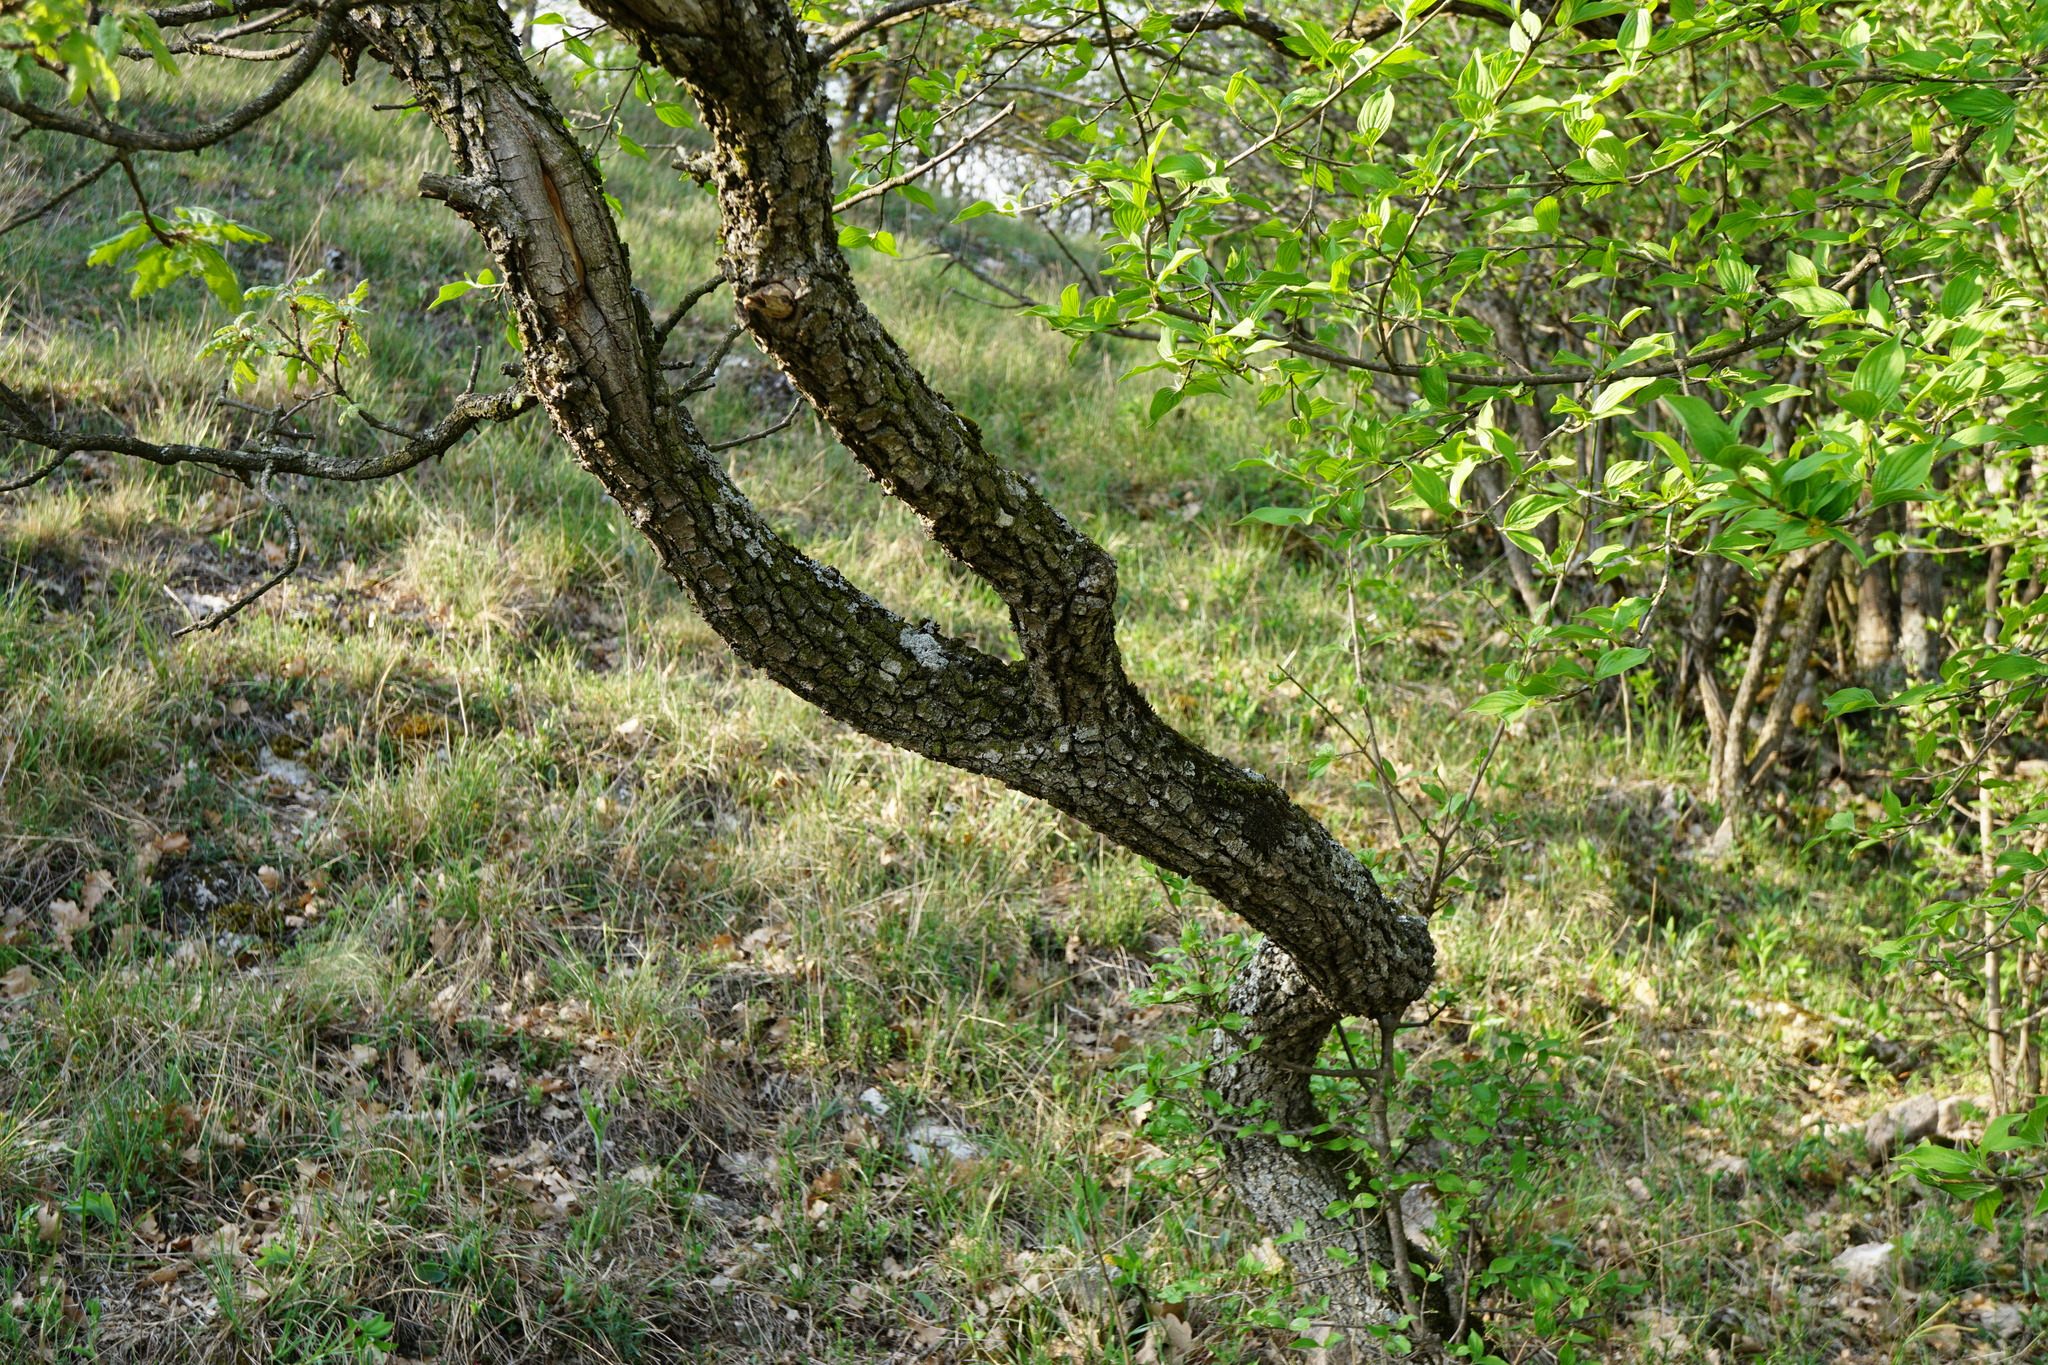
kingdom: Plantae
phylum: Tracheophyta
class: Magnoliopsida
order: Fagales
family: Fagaceae
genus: Quercus
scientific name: Quercus pubescens
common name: Downy oak
